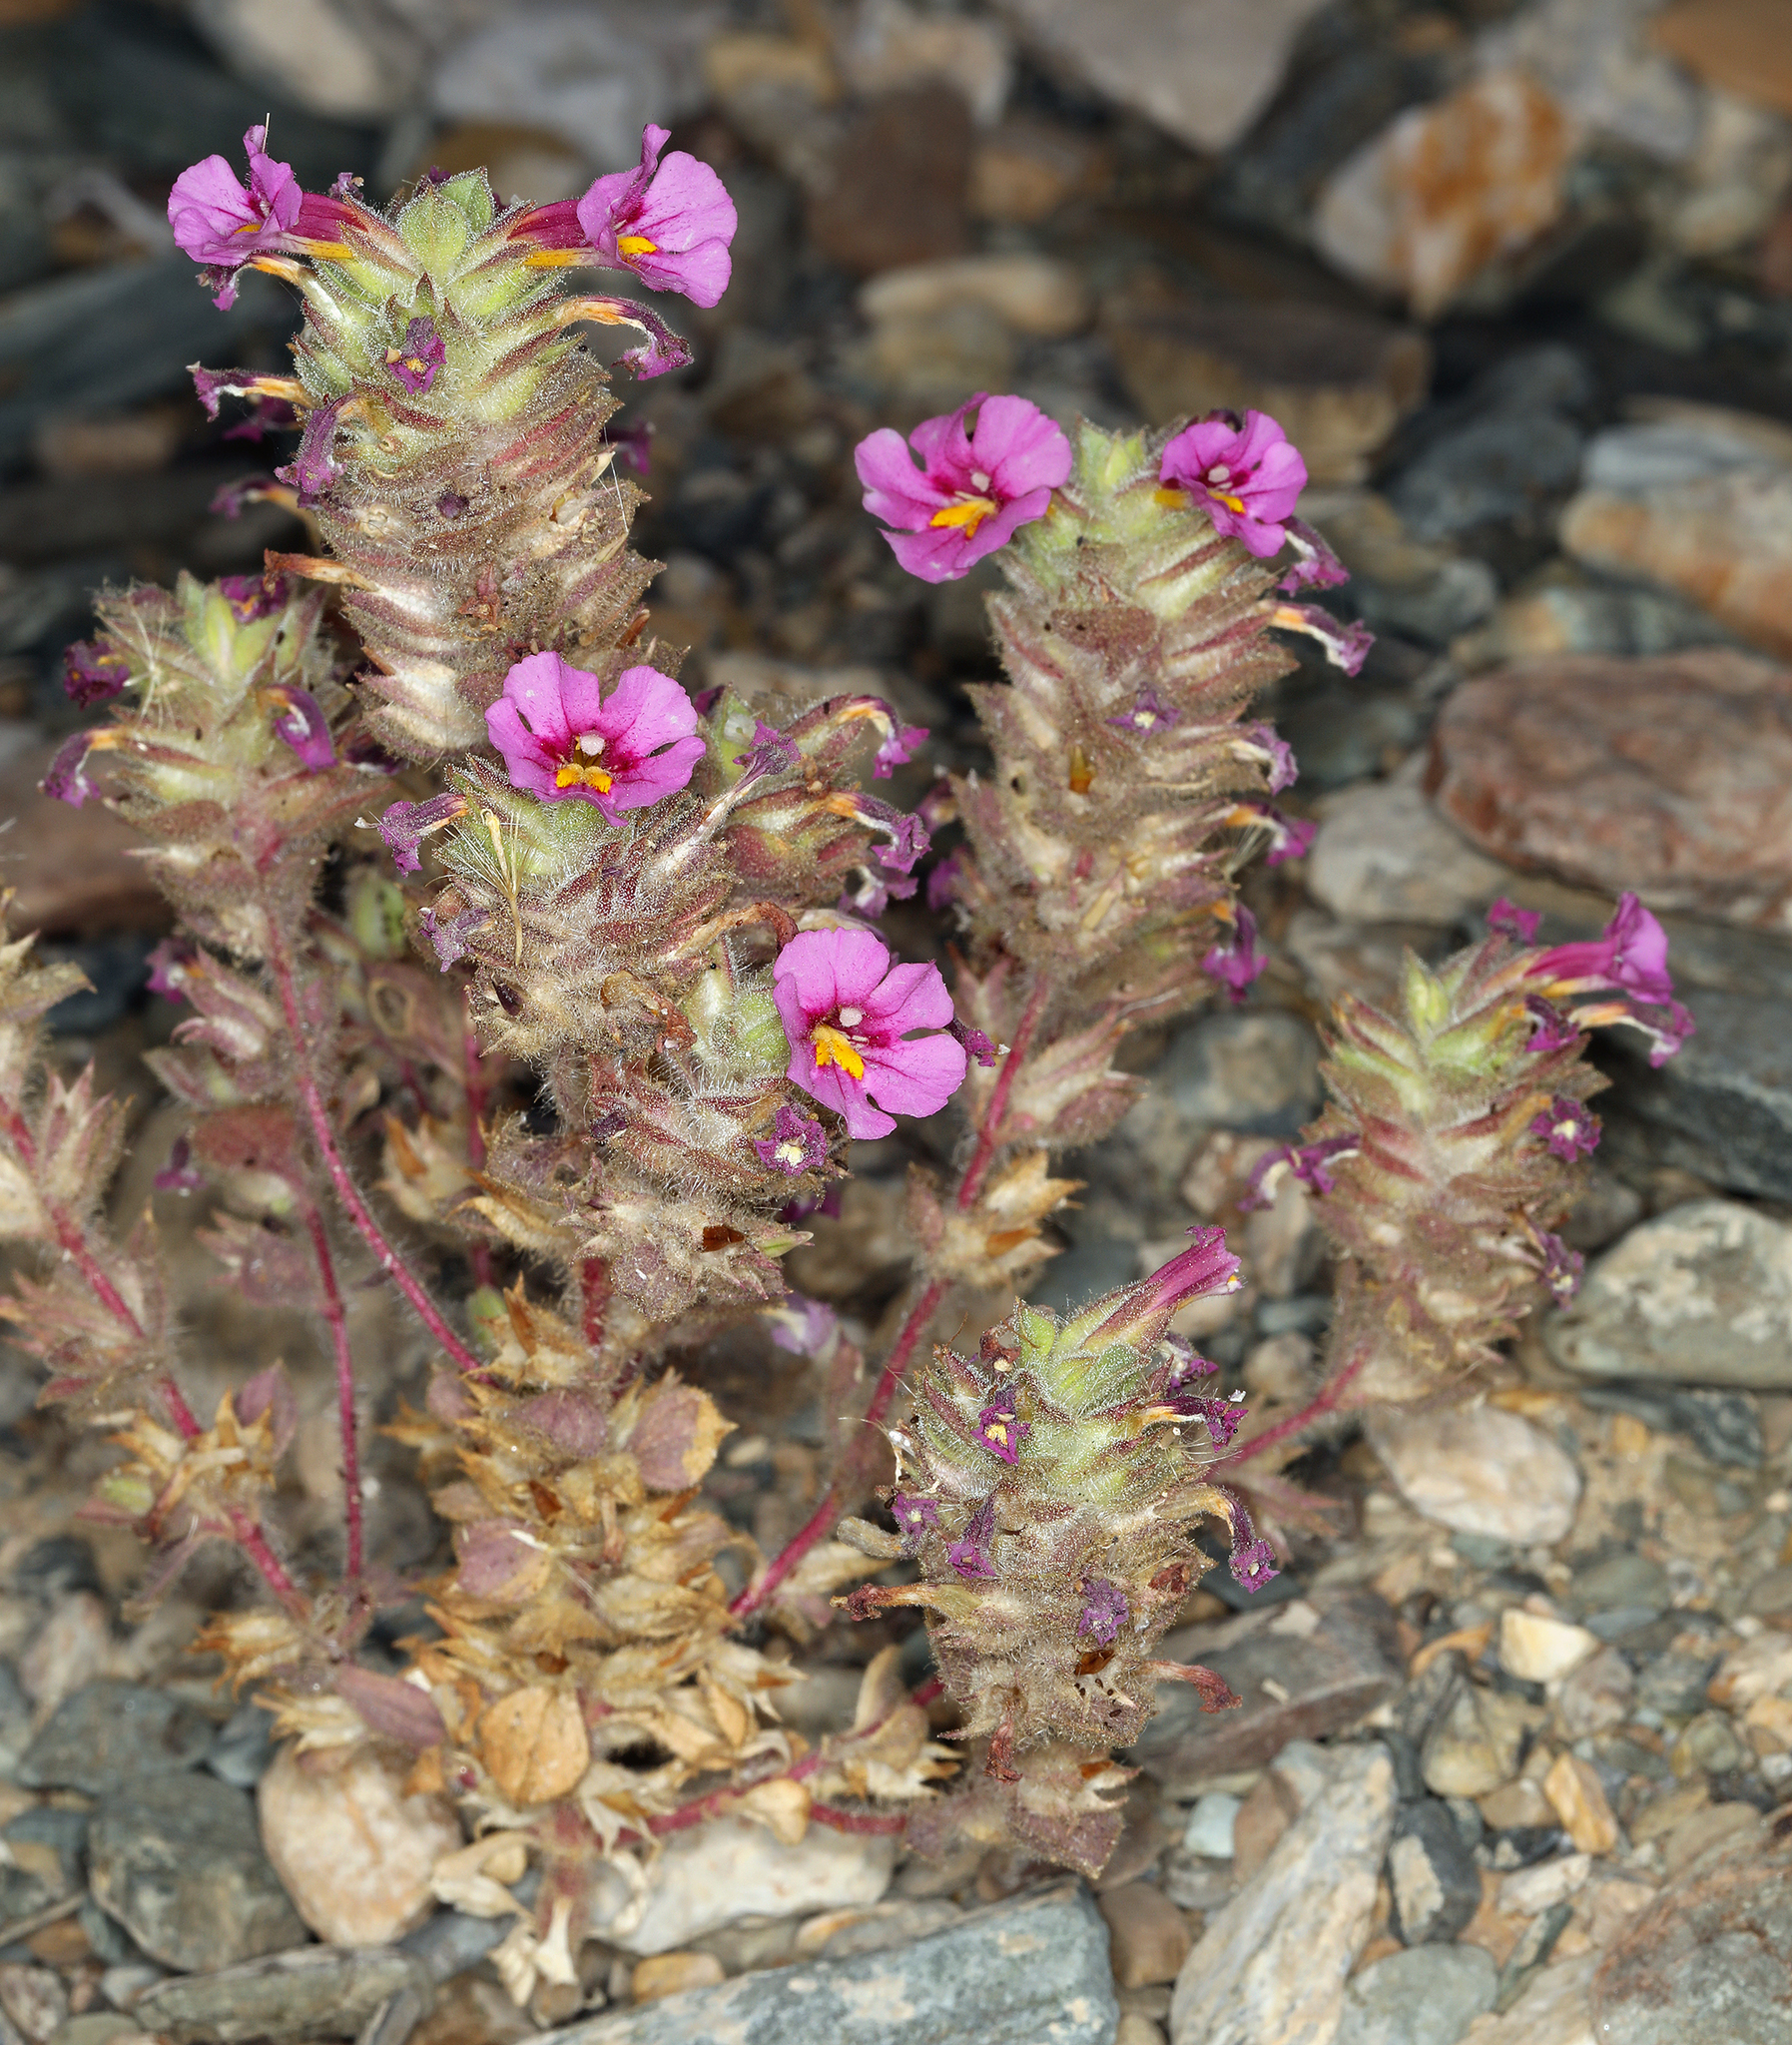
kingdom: Plantae
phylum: Tracheophyta
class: Magnoliopsida
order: Lamiales
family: Phrymaceae
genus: Diplacus
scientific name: Diplacus bigelovii
